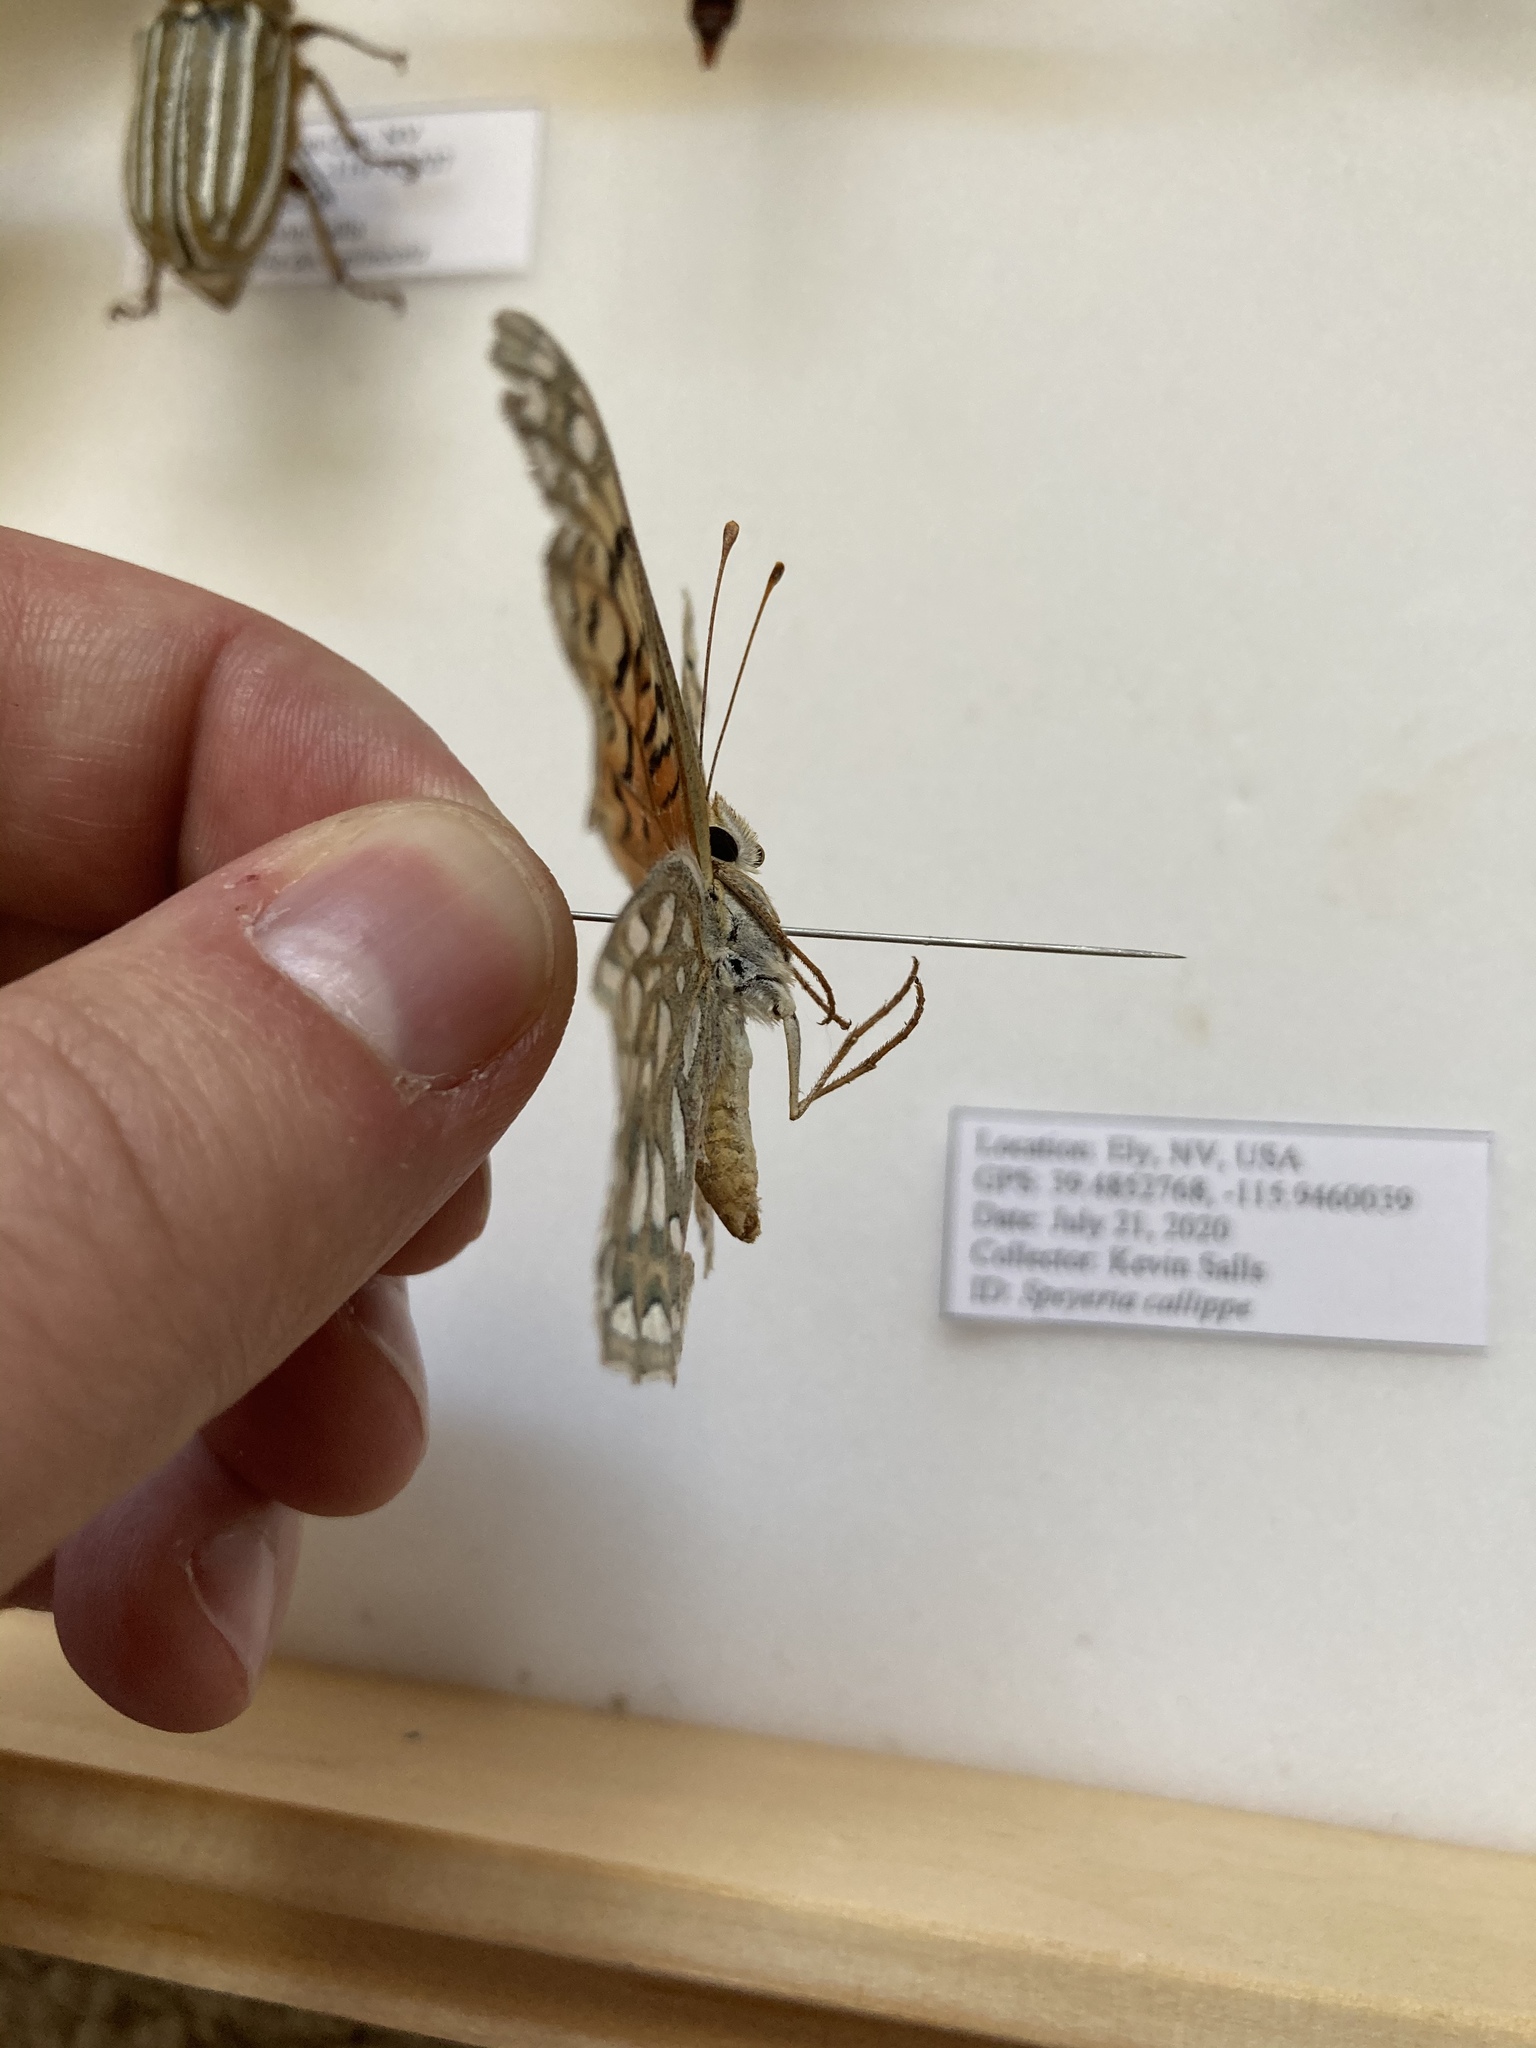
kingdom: Animalia
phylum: Arthropoda
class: Insecta
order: Lepidoptera
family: Nymphalidae
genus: Speyeria
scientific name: Speyeria callippe
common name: Callippe fritillary
